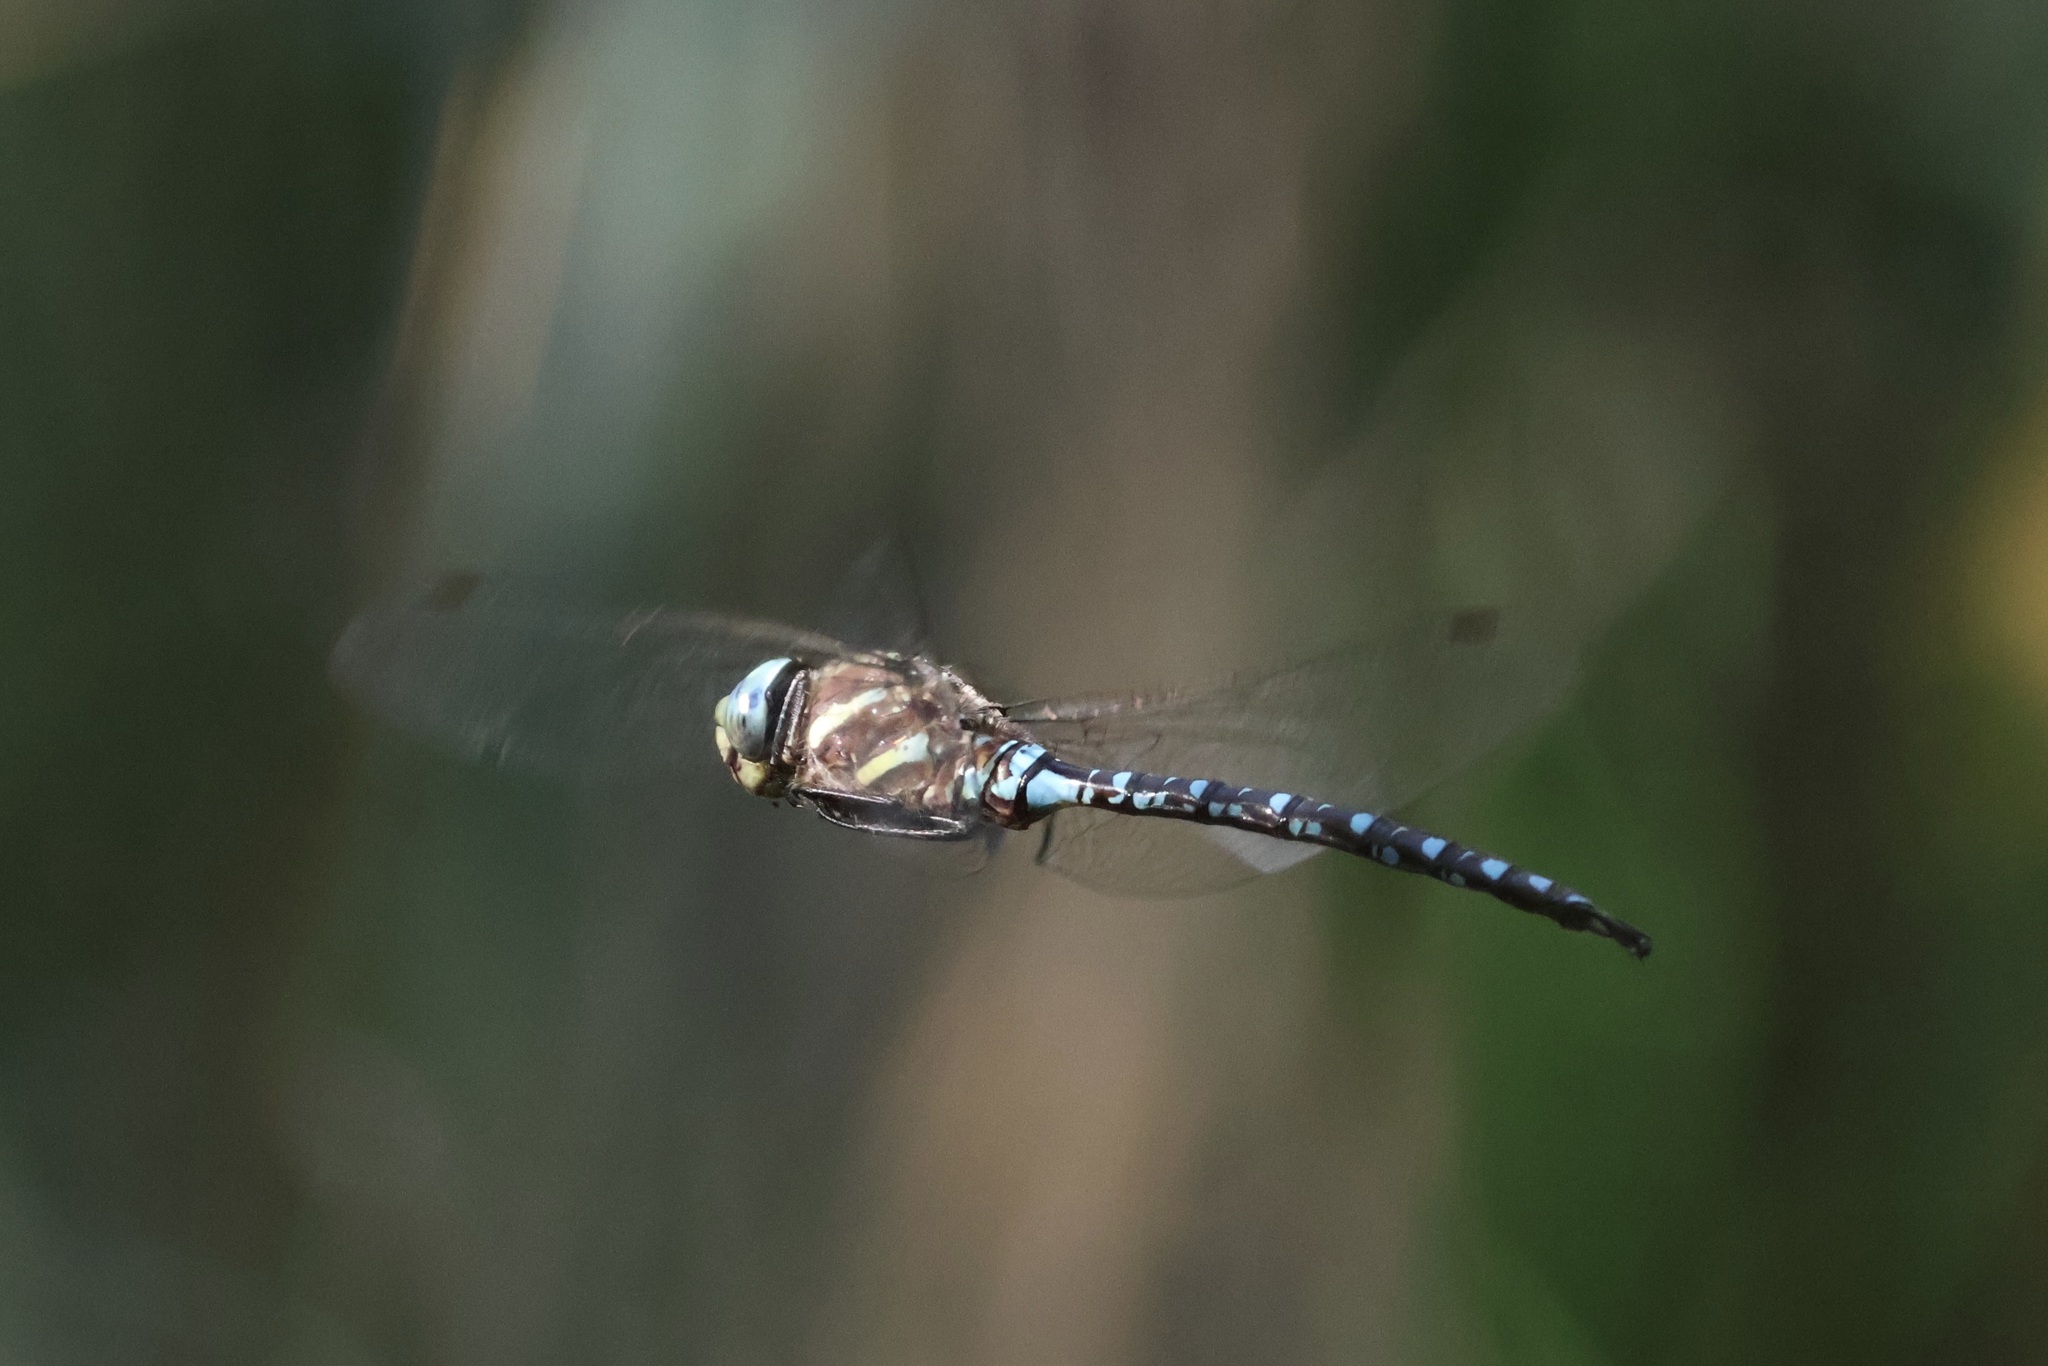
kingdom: Animalia
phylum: Arthropoda
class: Insecta
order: Odonata
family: Aeshnidae
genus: Aeshna
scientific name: Aeshna palmata
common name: Paddle-tailed darner
